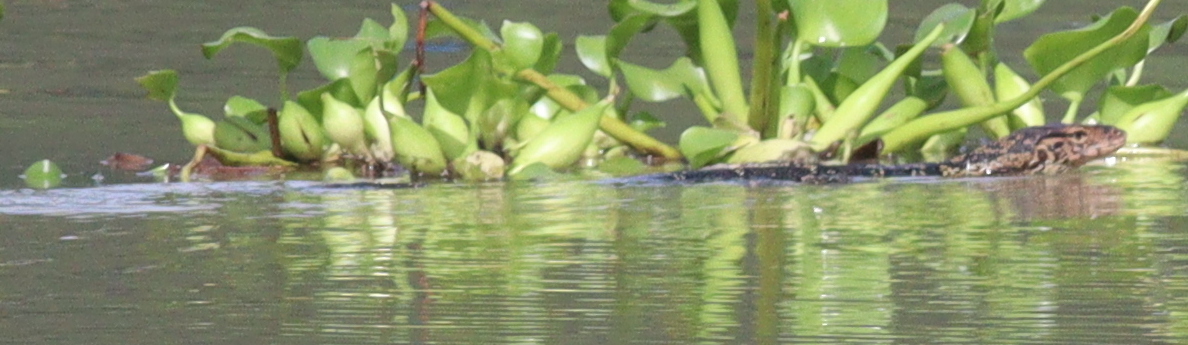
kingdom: Animalia
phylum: Chordata
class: Squamata
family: Varanidae
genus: Varanus
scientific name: Varanus salvator
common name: Common water monitor
